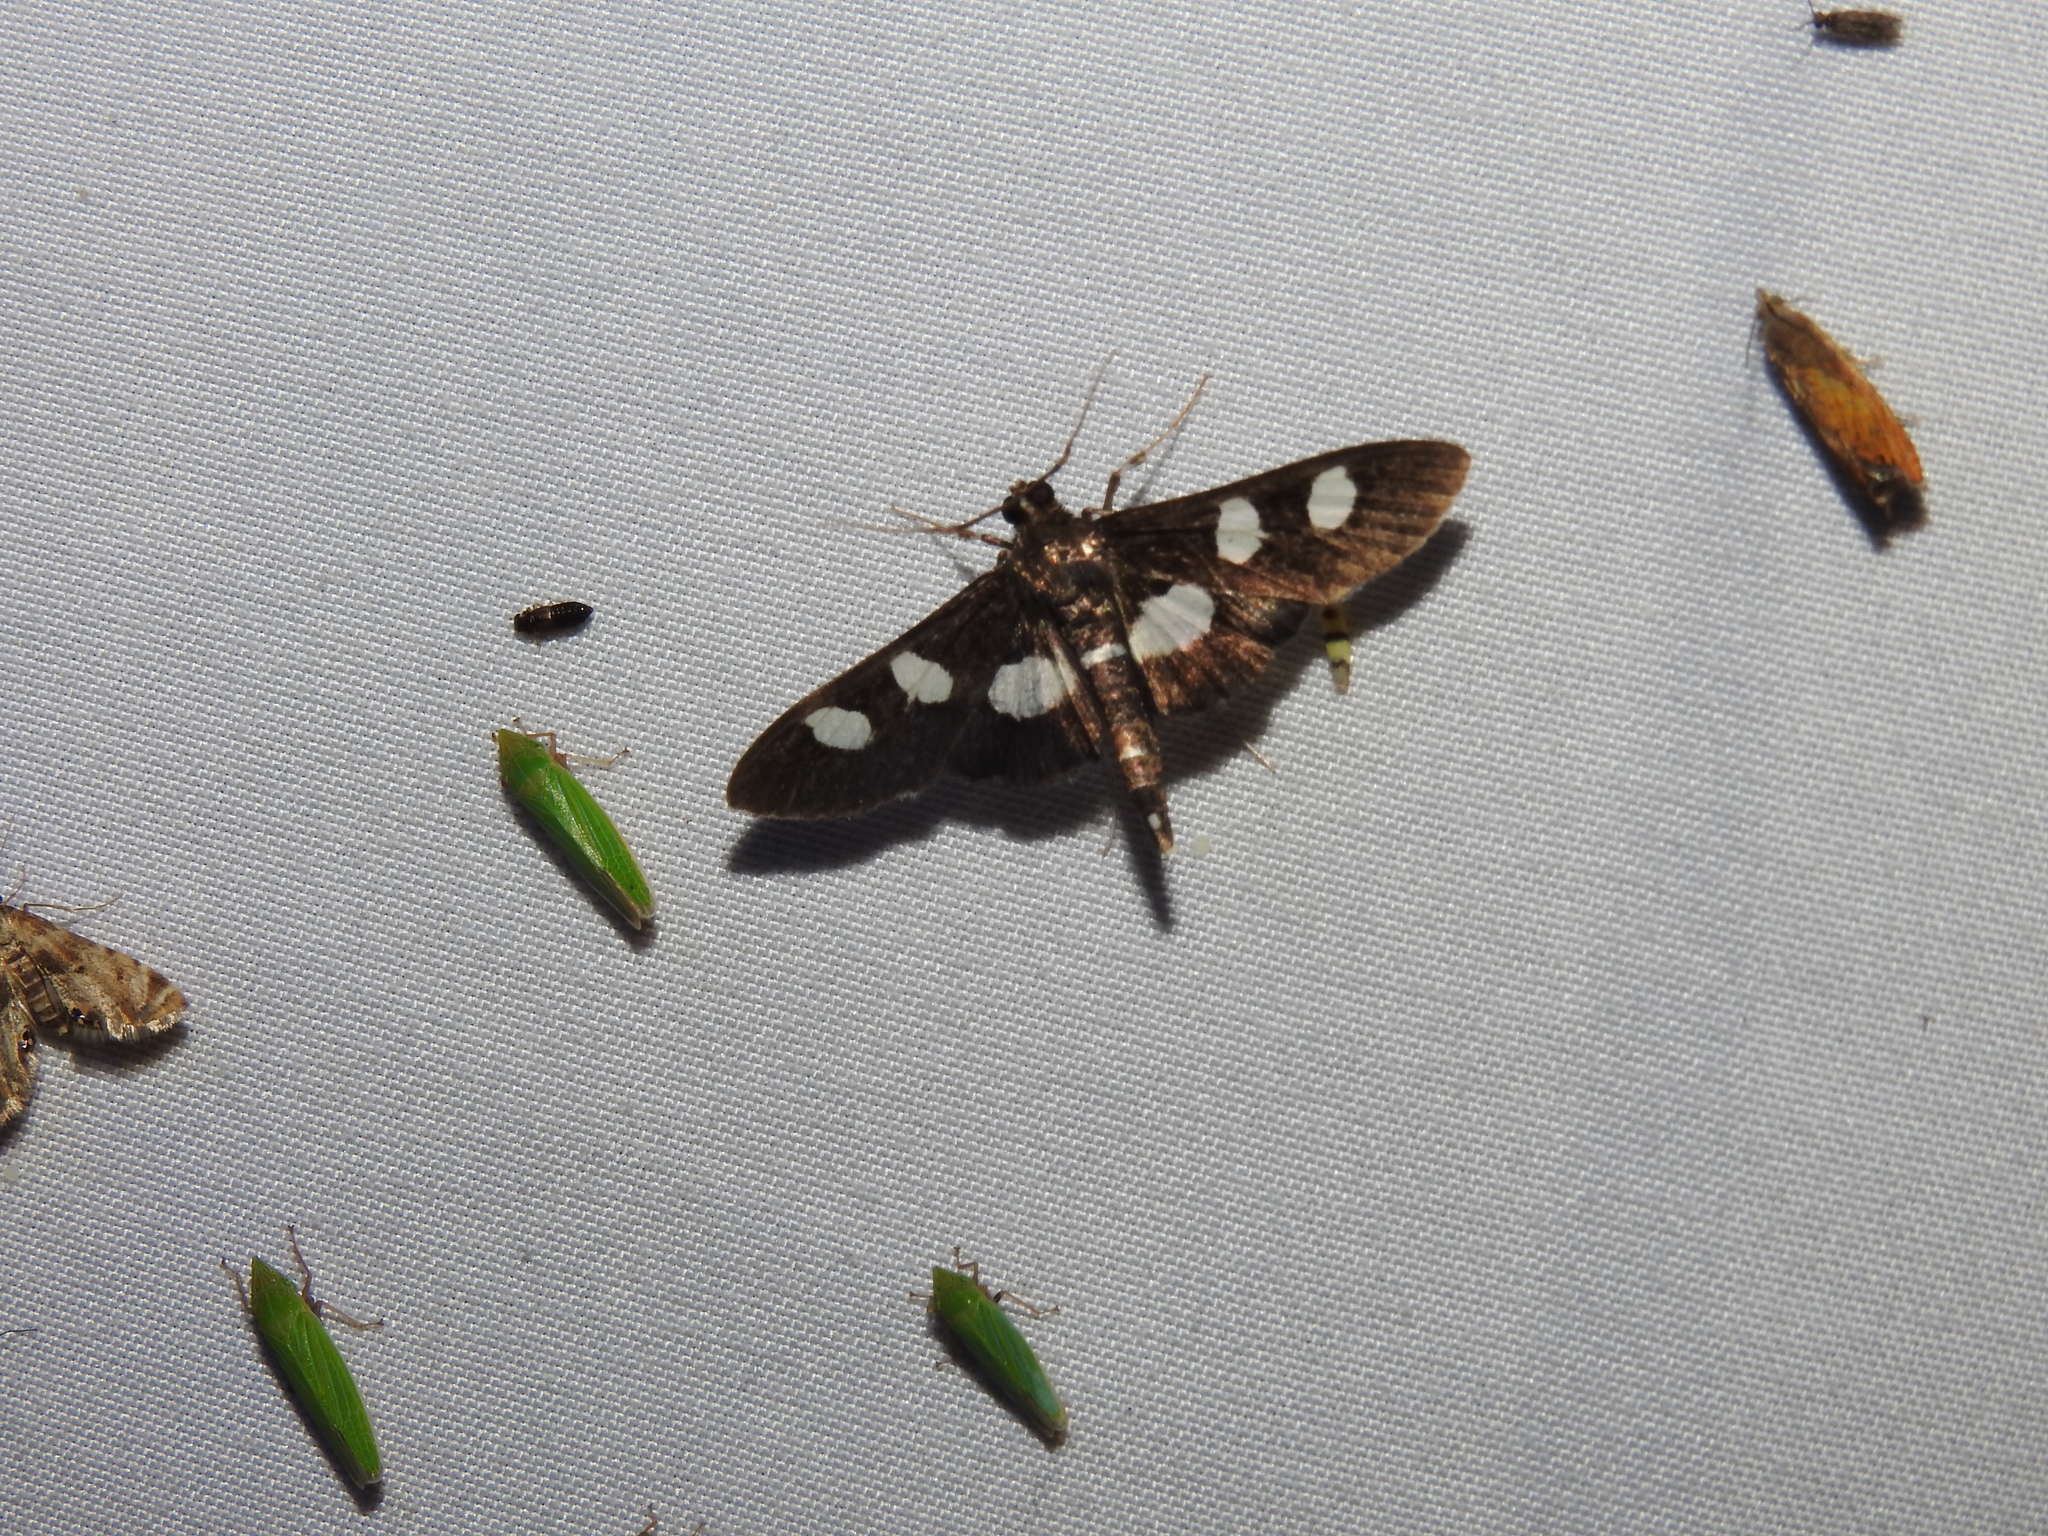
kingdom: Animalia
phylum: Arthropoda
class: Insecta
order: Lepidoptera
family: Crambidae
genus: Desmia
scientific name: Desmia
